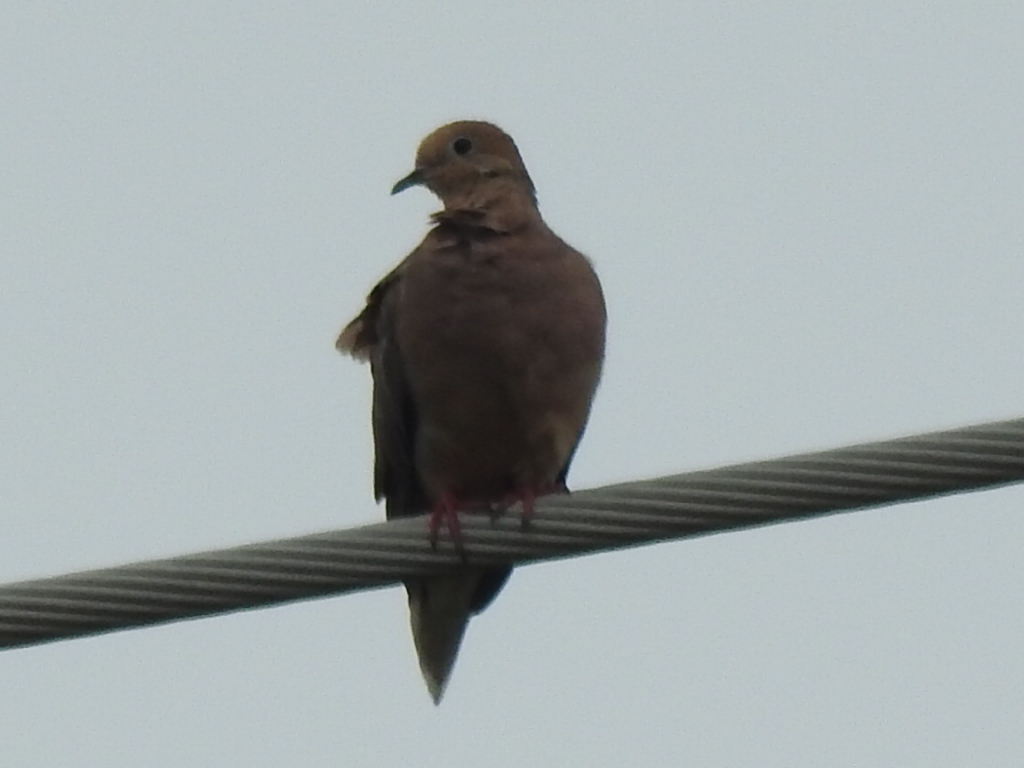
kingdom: Animalia
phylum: Chordata
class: Aves
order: Columbiformes
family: Columbidae
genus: Zenaida
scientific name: Zenaida macroura
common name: Mourning dove
